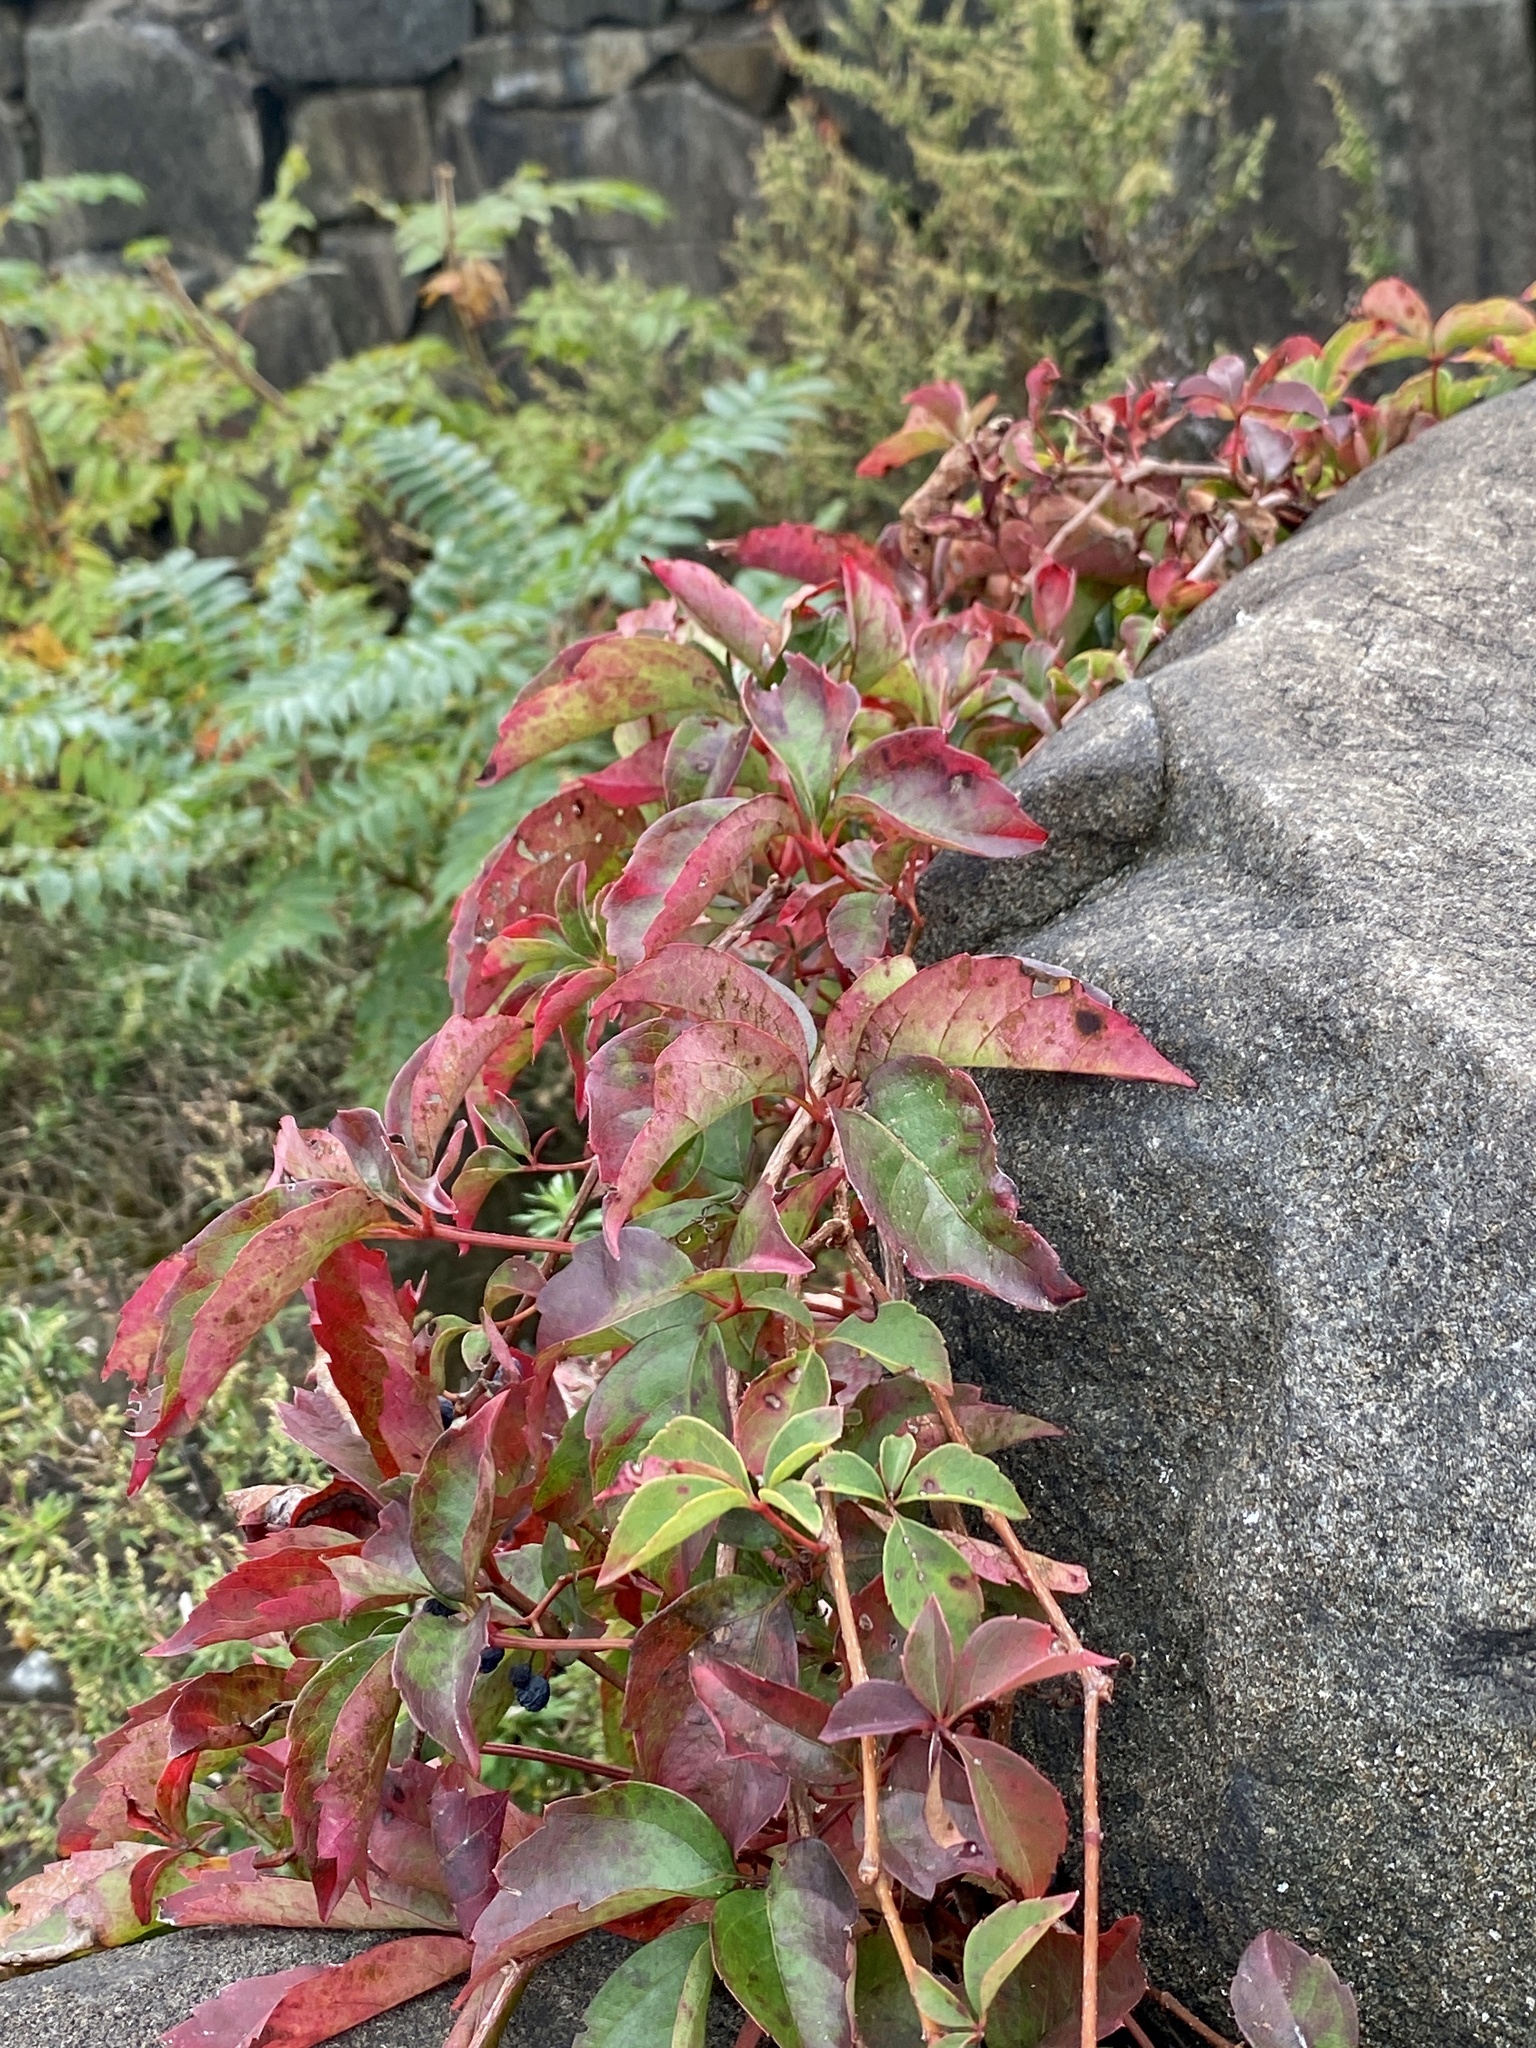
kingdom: Plantae
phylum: Tracheophyta
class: Magnoliopsida
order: Vitales
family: Vitaceae
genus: Parthenocissus
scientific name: Parthenocissus quinquefolia
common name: Virginia-creeper
